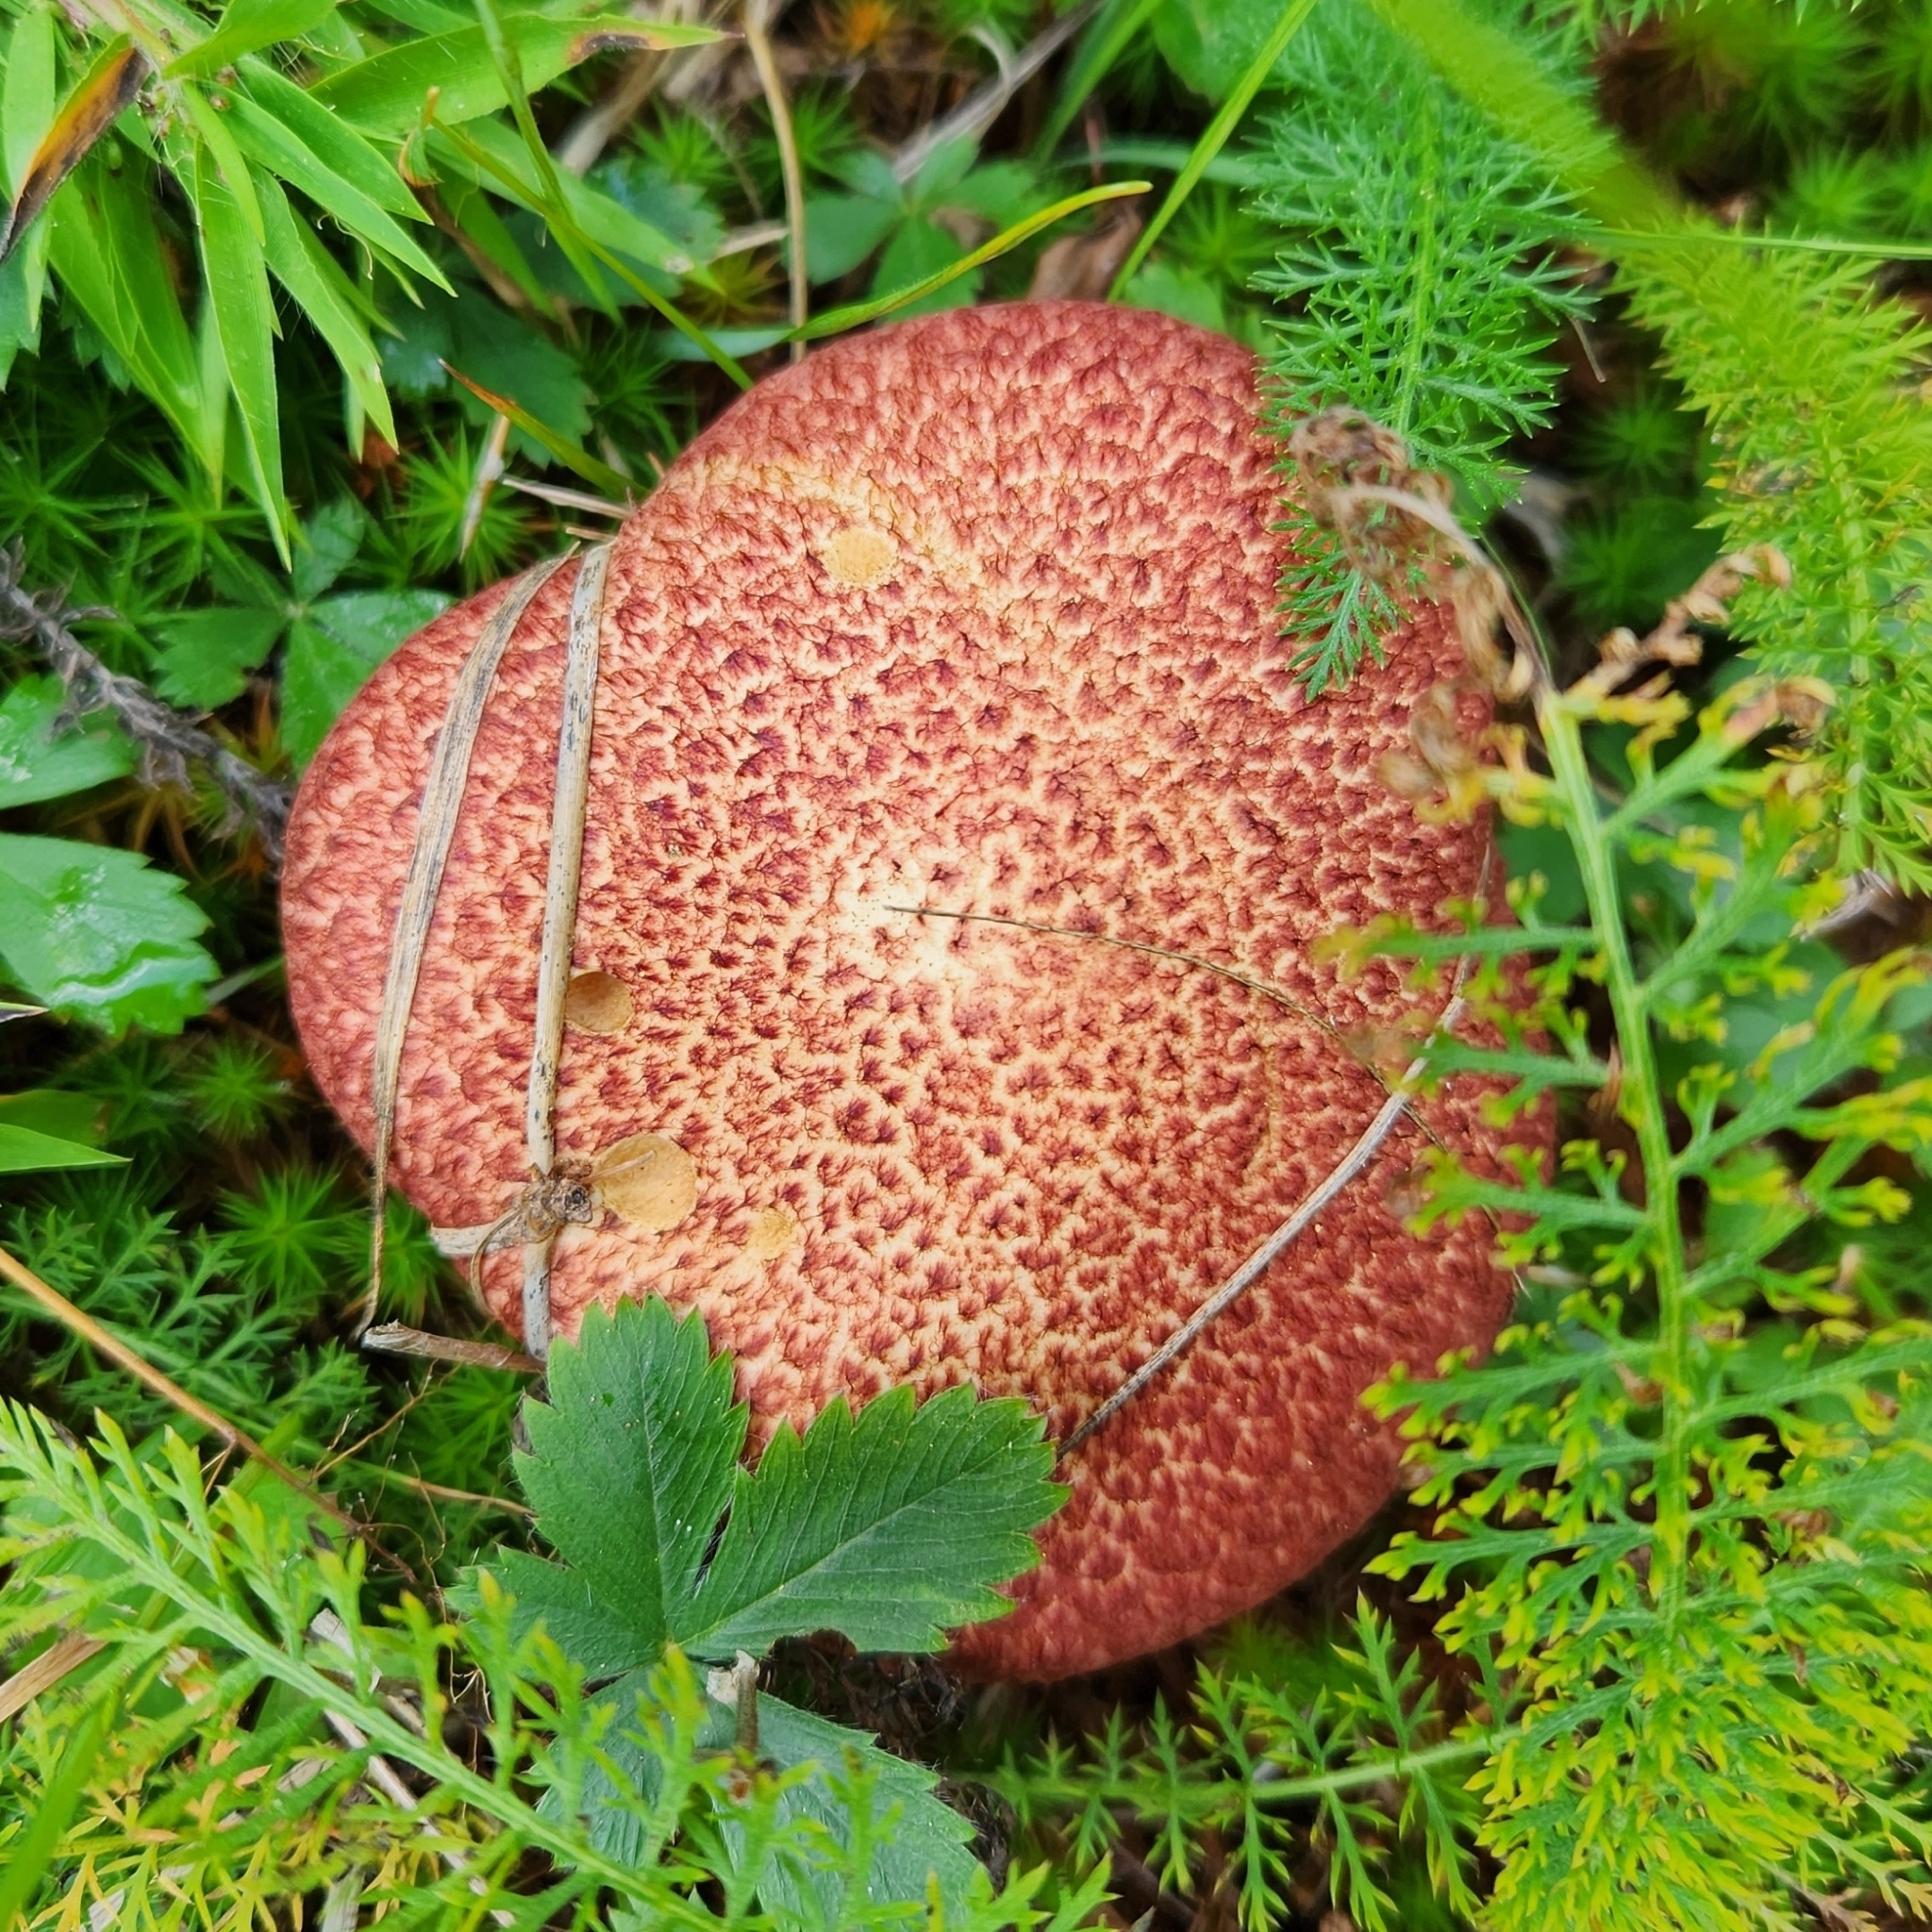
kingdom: Fungi
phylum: Basidiomycota
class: Agaricomycetes
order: Boletales
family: Suillaceae
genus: Suillus
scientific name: Suillus spraguei
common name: Painted suillus
